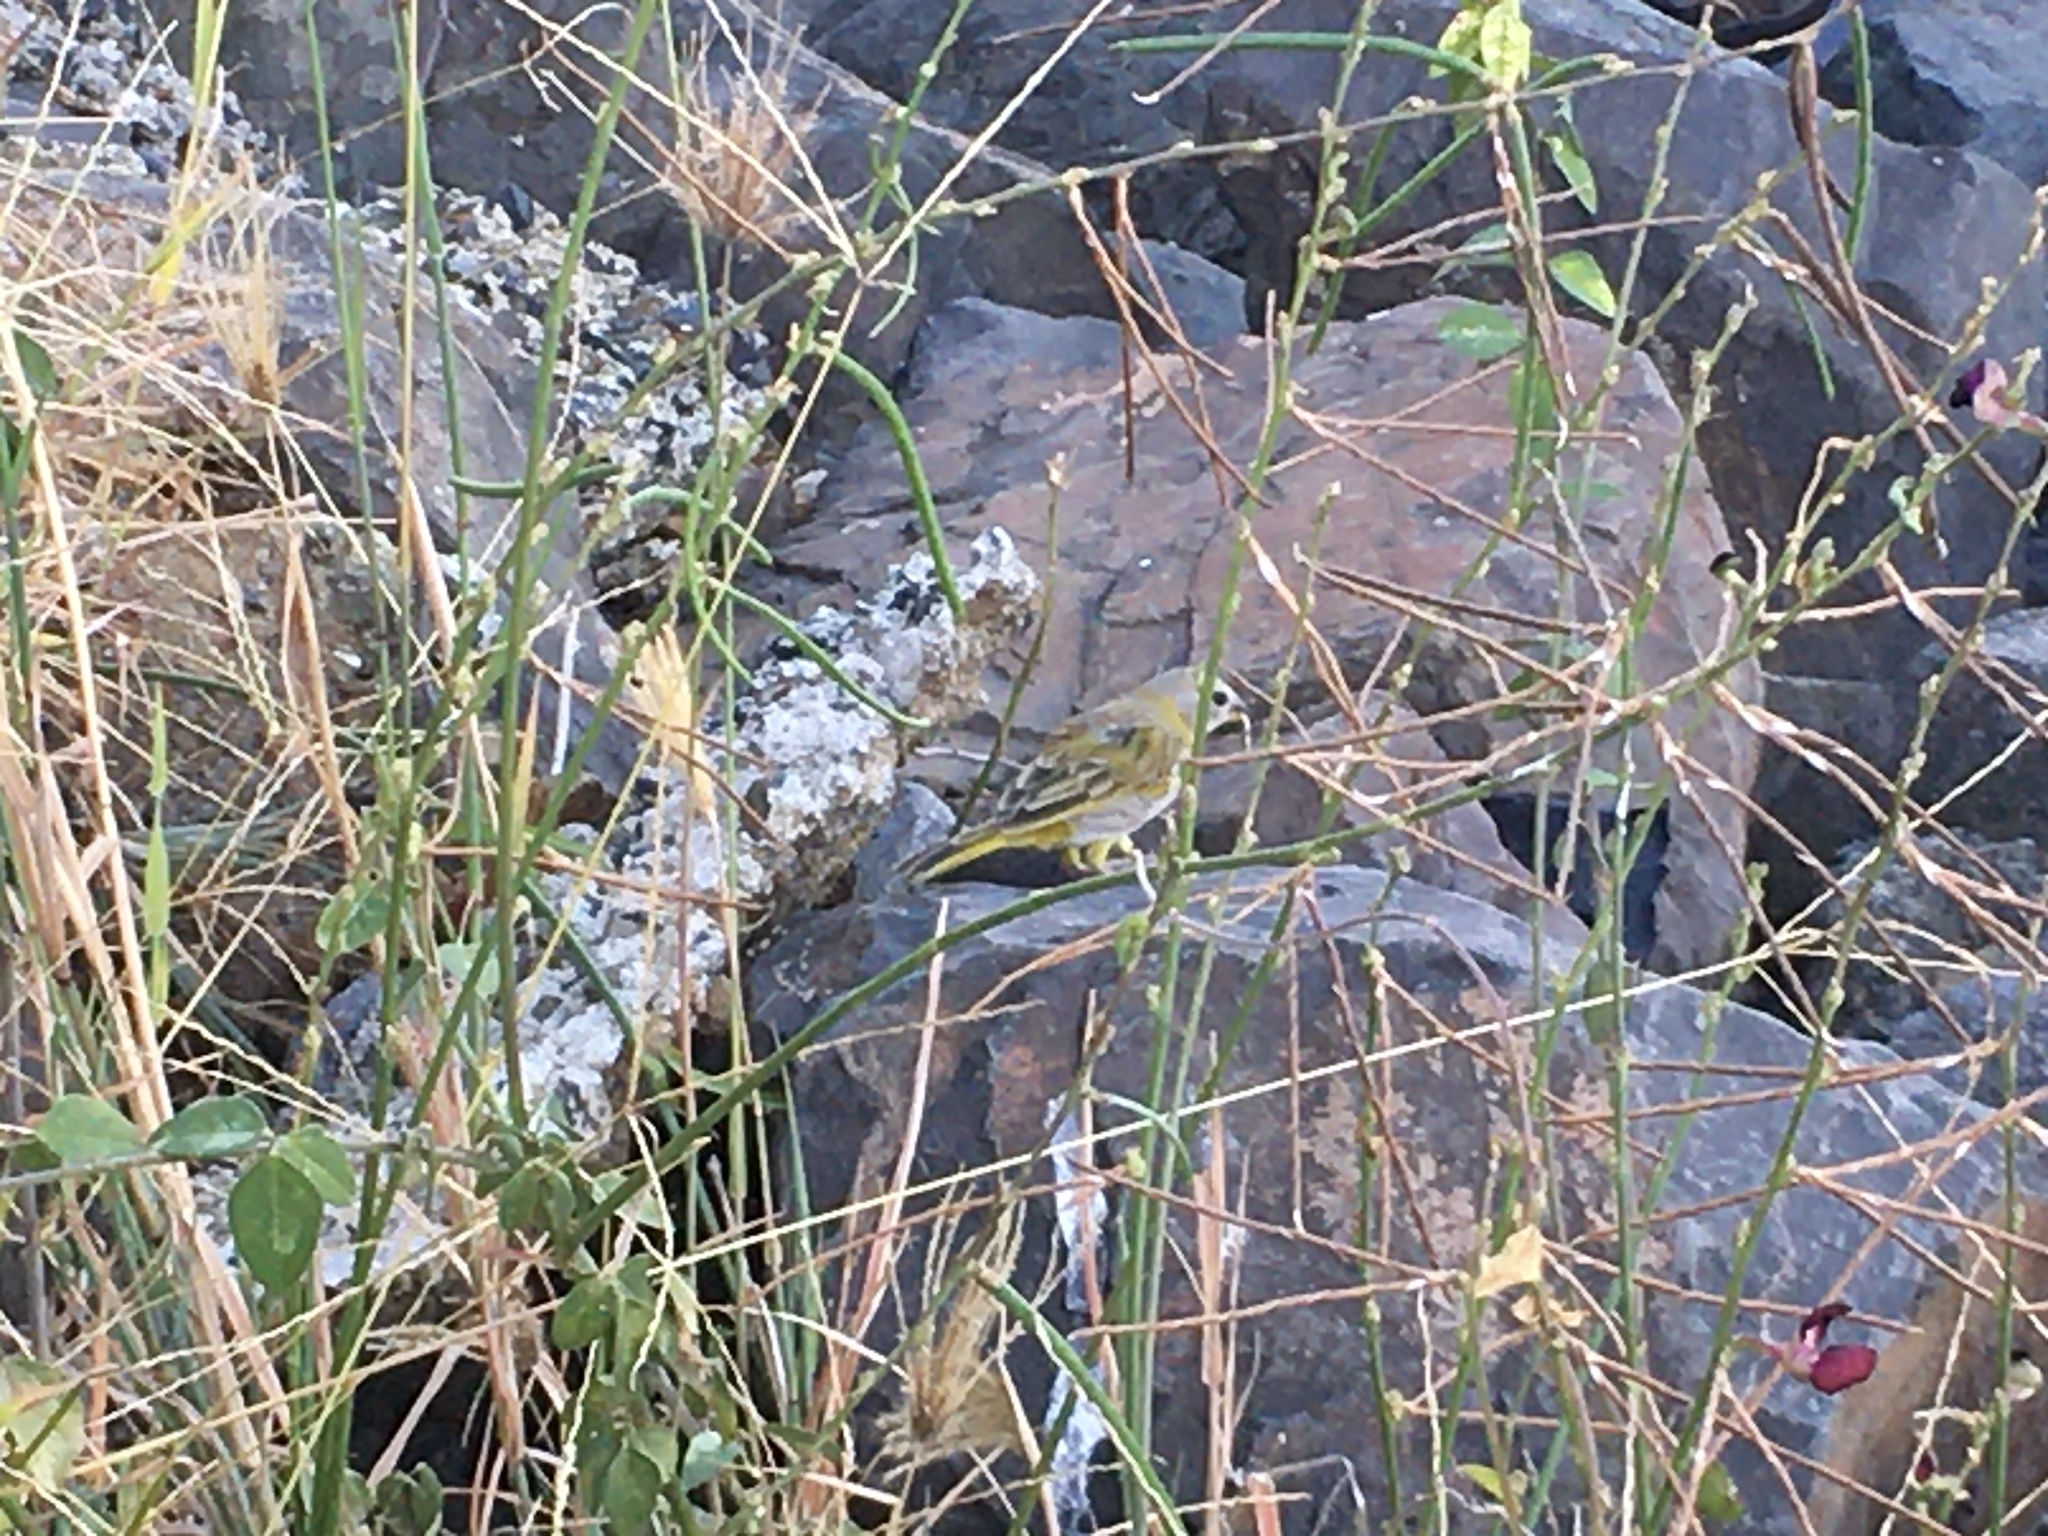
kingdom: Animalia
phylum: Chordata
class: Aves
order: Passeriformes
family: Thraupidae
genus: Sicalis
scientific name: Sicalis flaveola
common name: Saffron finch
